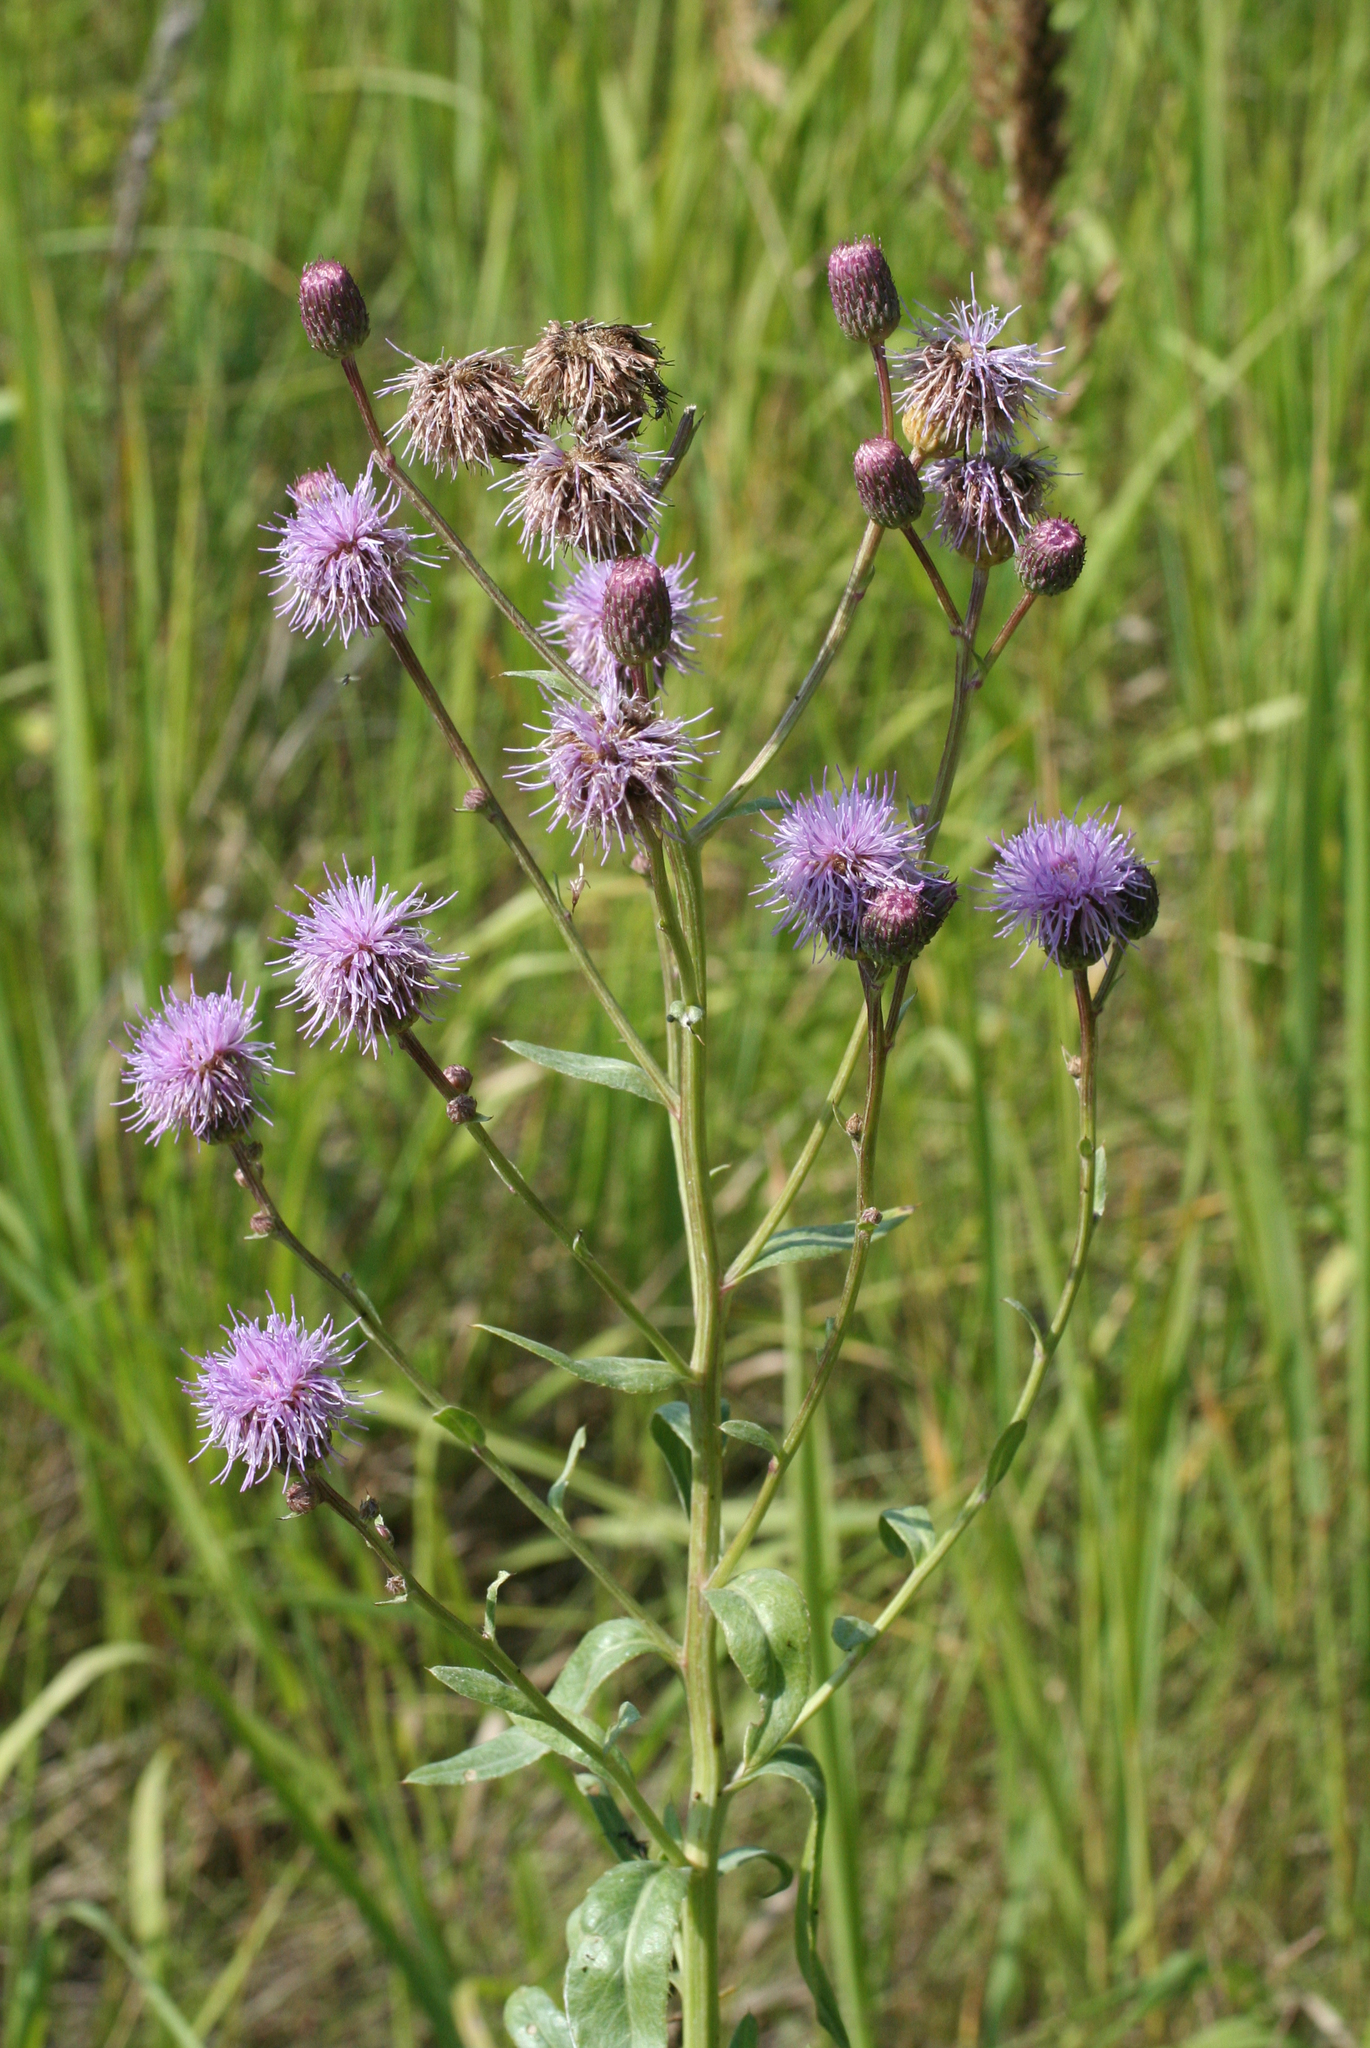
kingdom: Plantae
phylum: Tracheophyta
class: Magnoliopsida
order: Asterales
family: Asteraceae
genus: Cirsium
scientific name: Cirsium arvense
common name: Creeping thistle
